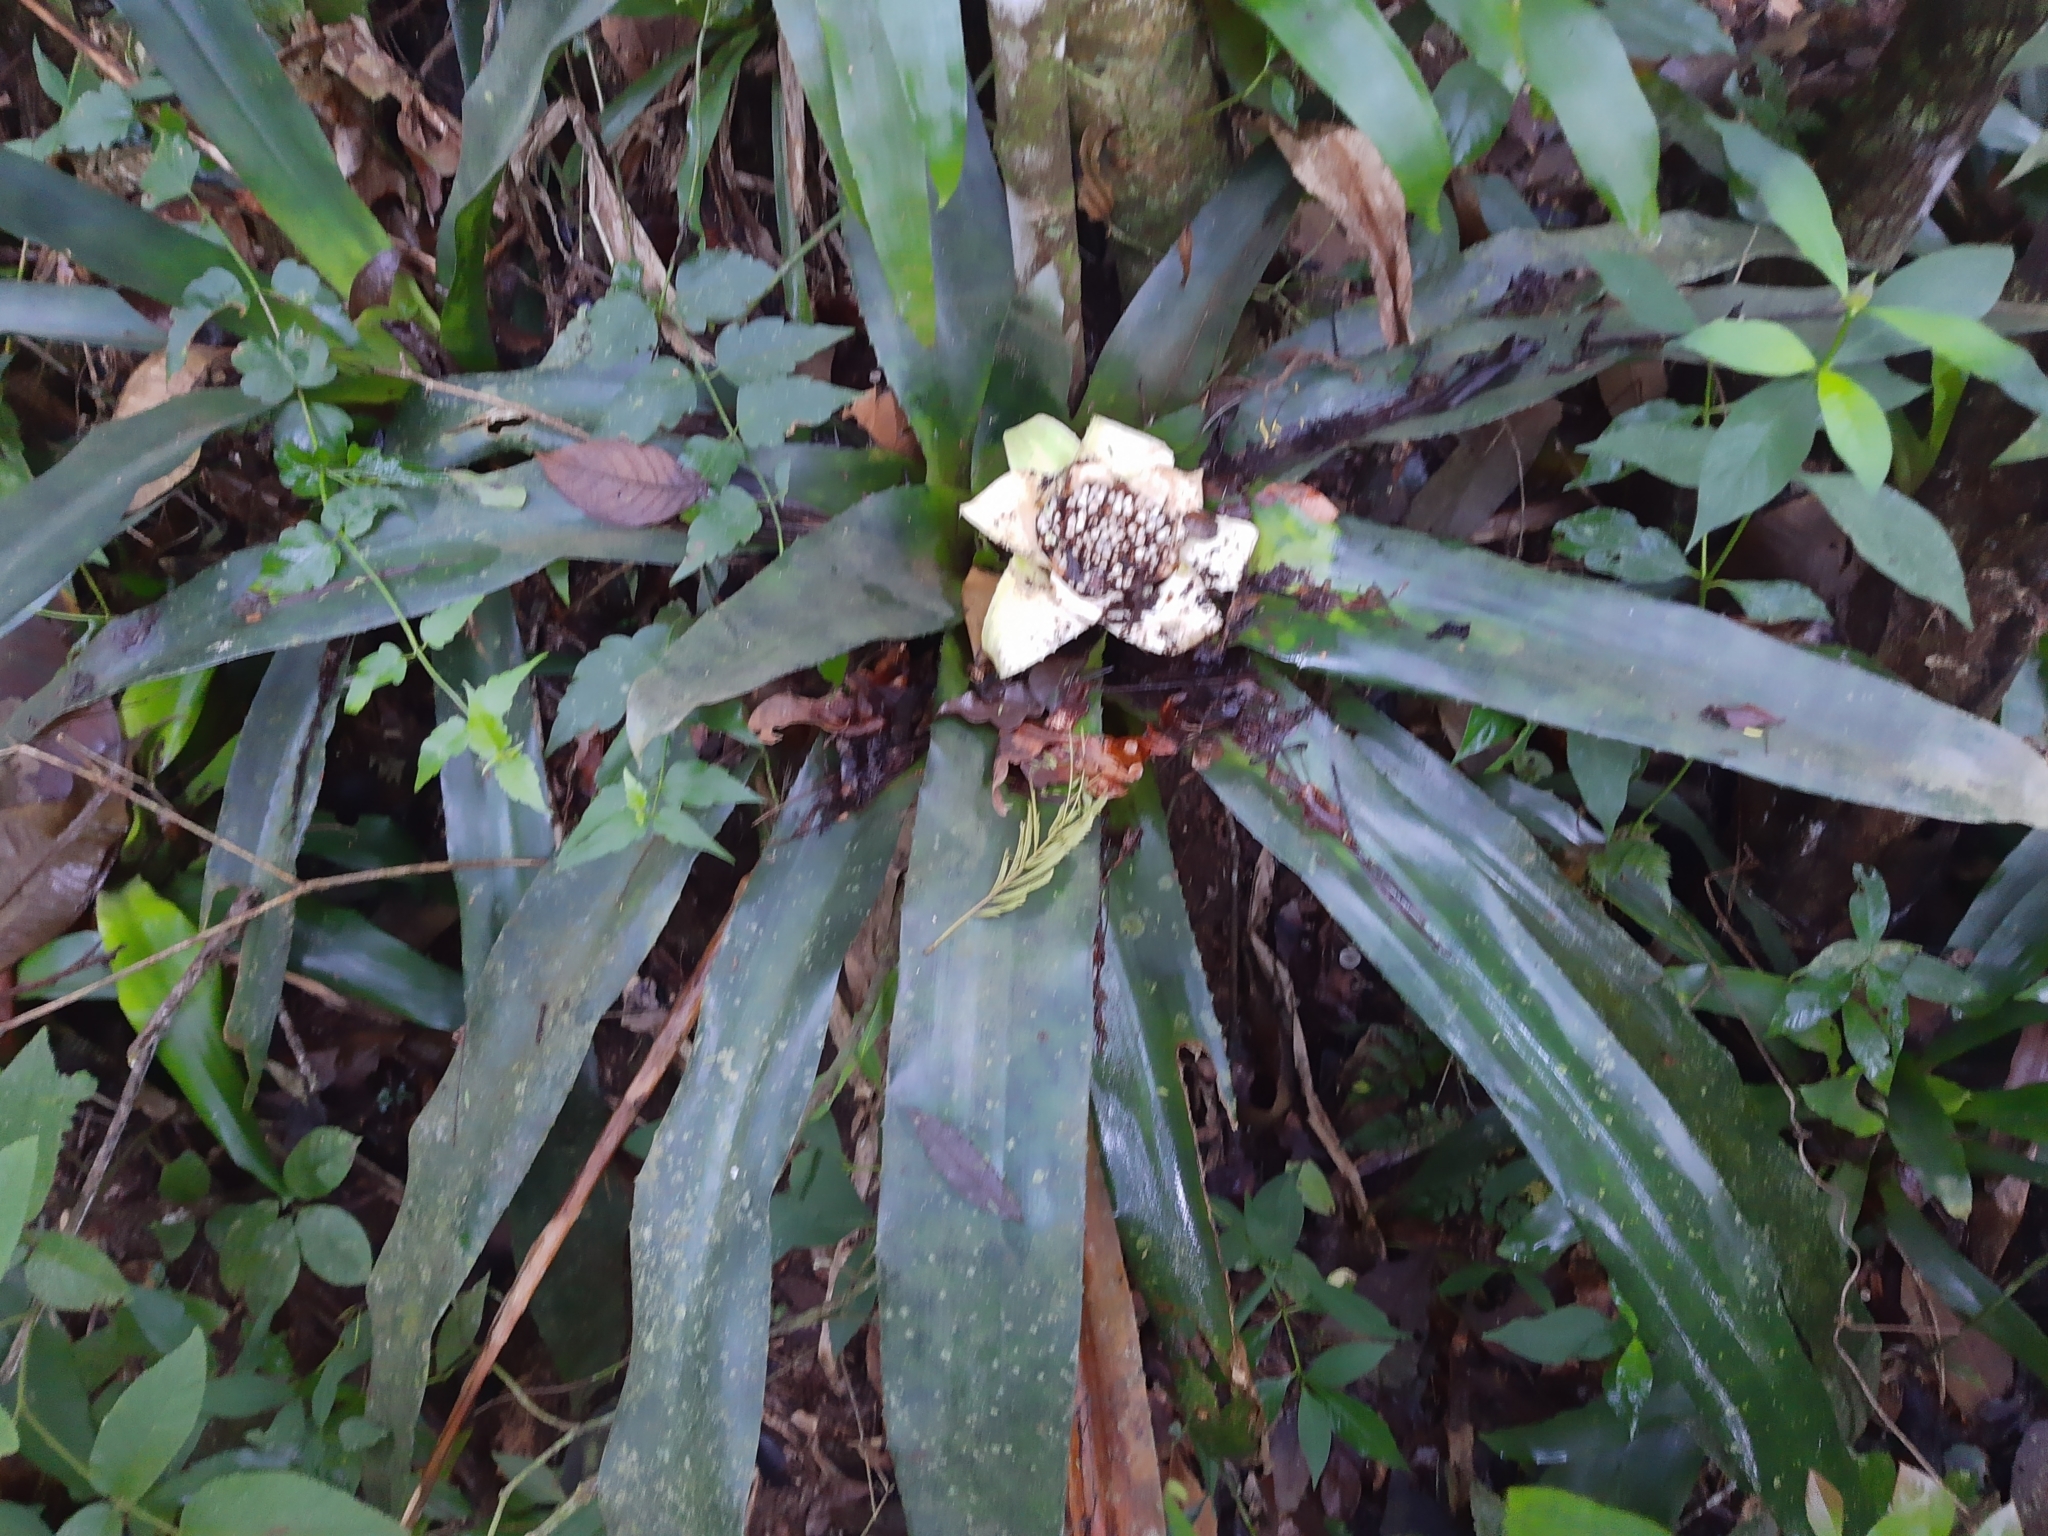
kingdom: Plantae
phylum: Tracheophyta
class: Liliopsida
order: Poales
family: Bromeliaceae
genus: Edmundoa
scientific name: Edmundoa lindenii
